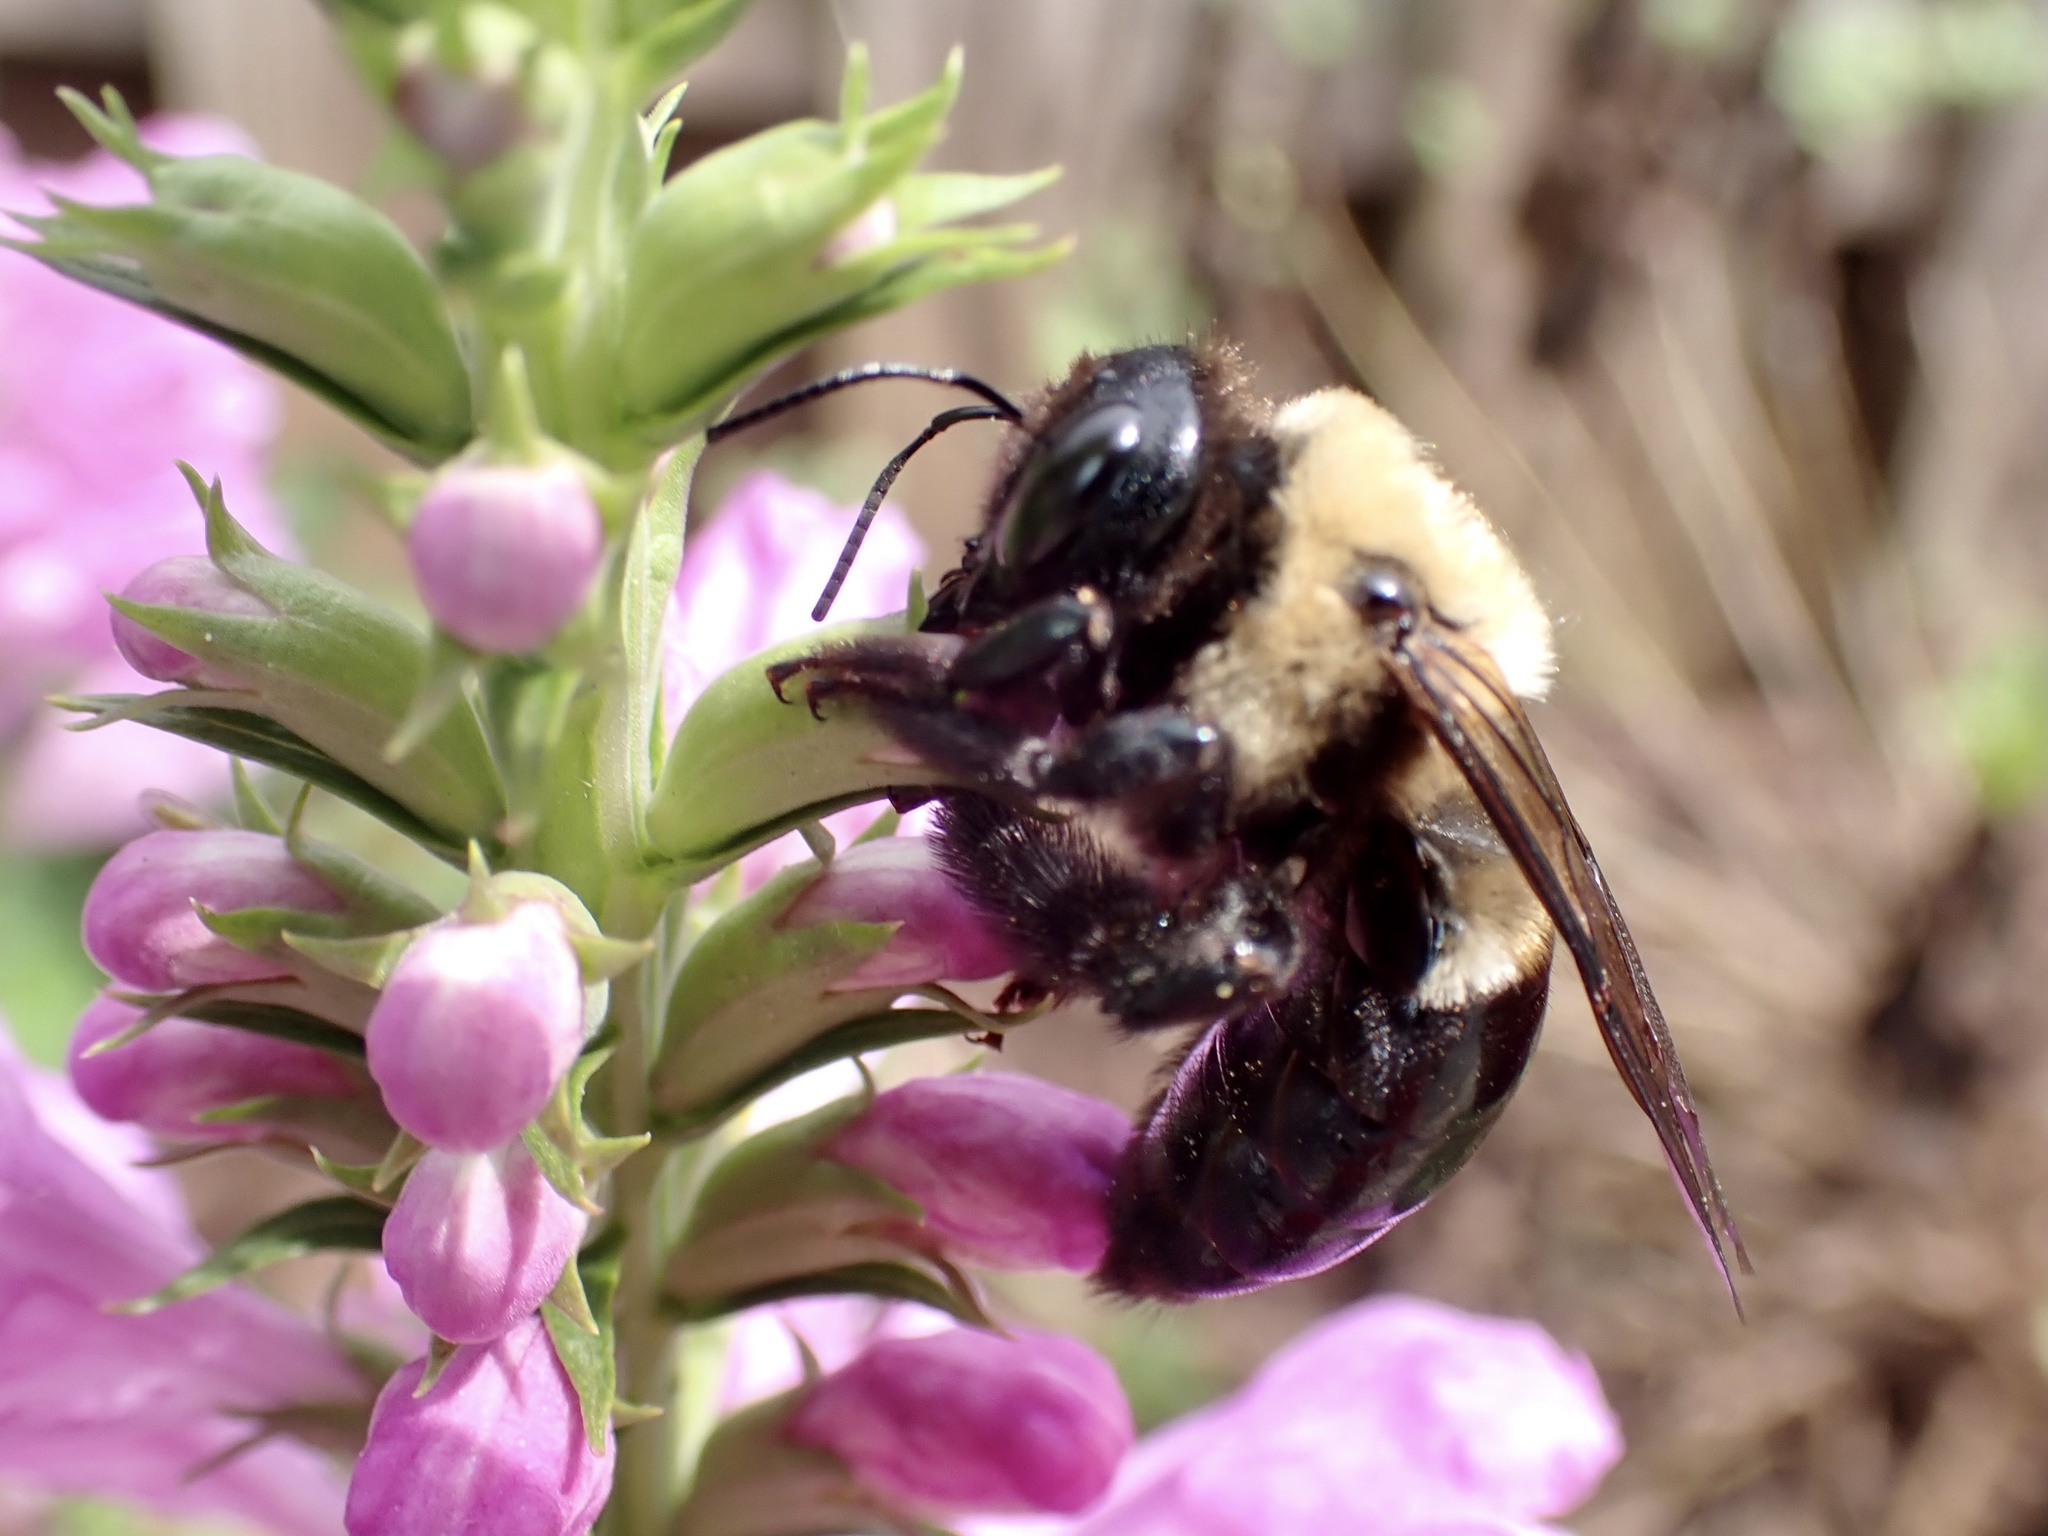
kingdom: Animalia
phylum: Arthropoda
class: Insecta
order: Hymenoptera
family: Apidae
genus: Xylocopa
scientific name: Xylocopa virginica
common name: Carpenter bee
